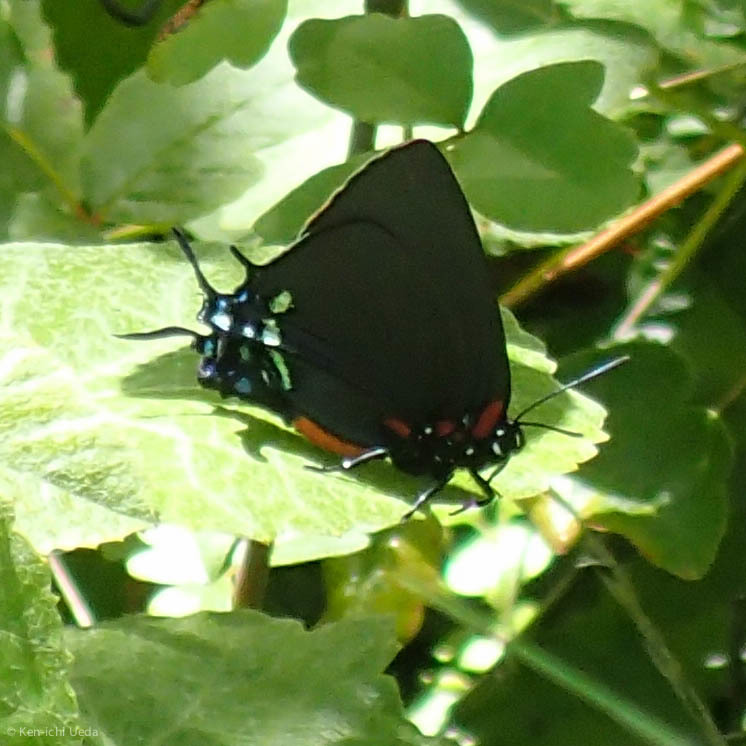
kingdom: Animalia
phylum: Arthropoda
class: Insecta
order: Lepidoptera
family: Lycaenidae
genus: Atlides
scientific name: Atlides halesus
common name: Great purple hairstreak
